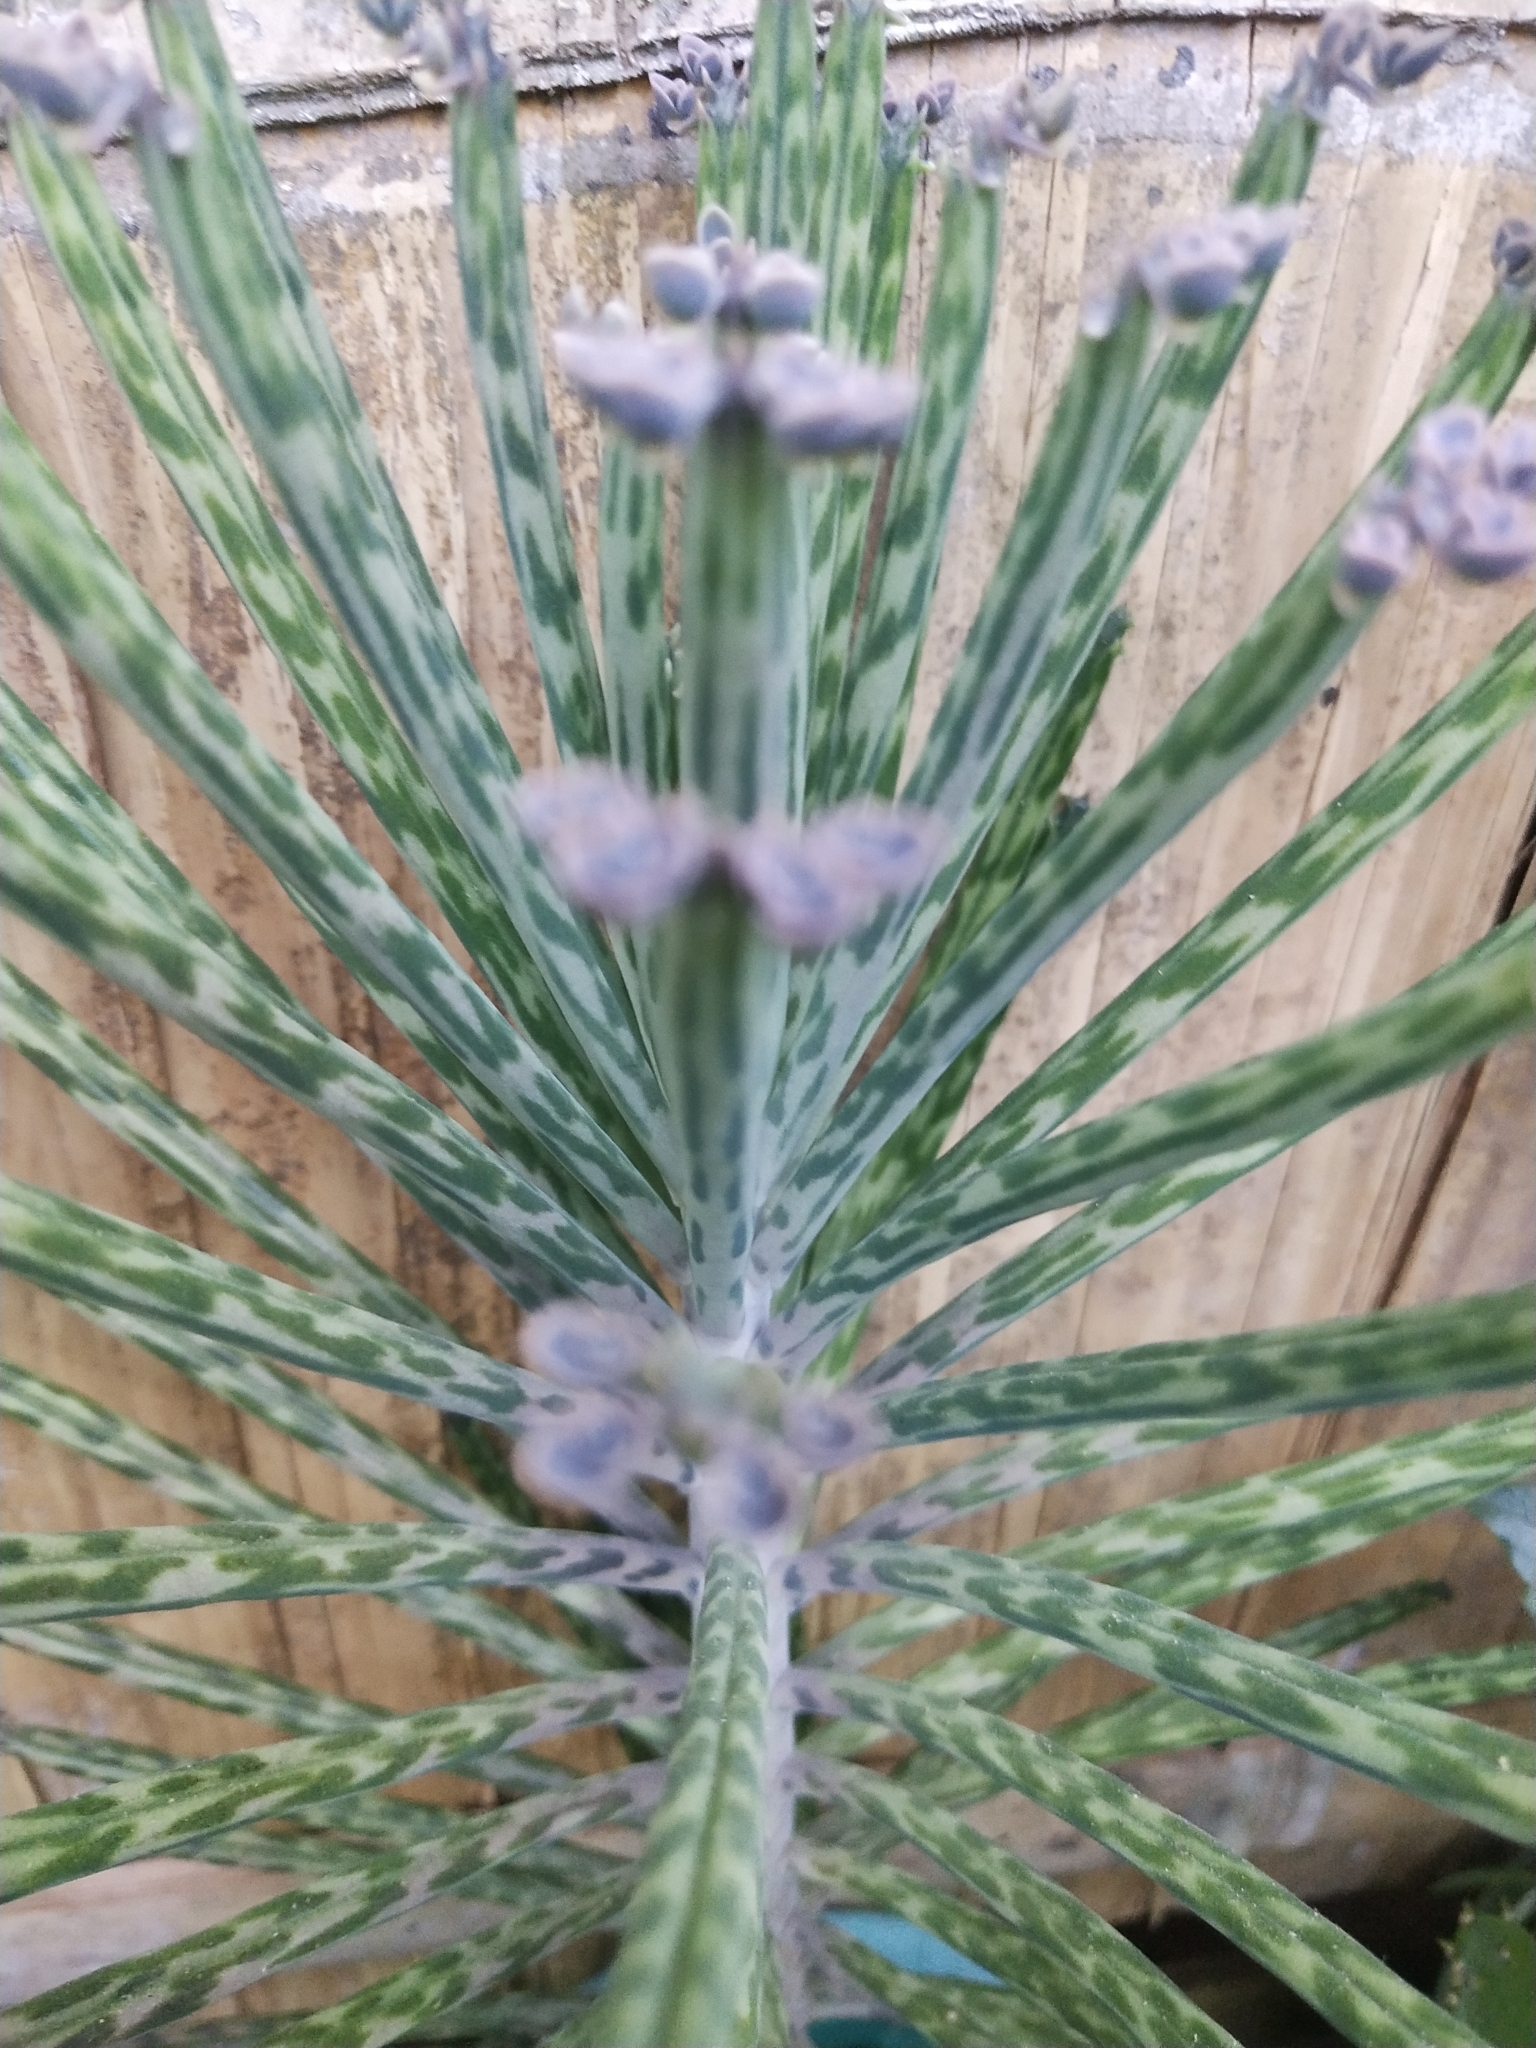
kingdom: Plantae
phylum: Tracheophyta
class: Magnoliopsida
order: Saxifragales
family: Crassulaceae
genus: Kalanchoe
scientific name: Kalanchoe delagoensis
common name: Chandelier plant
